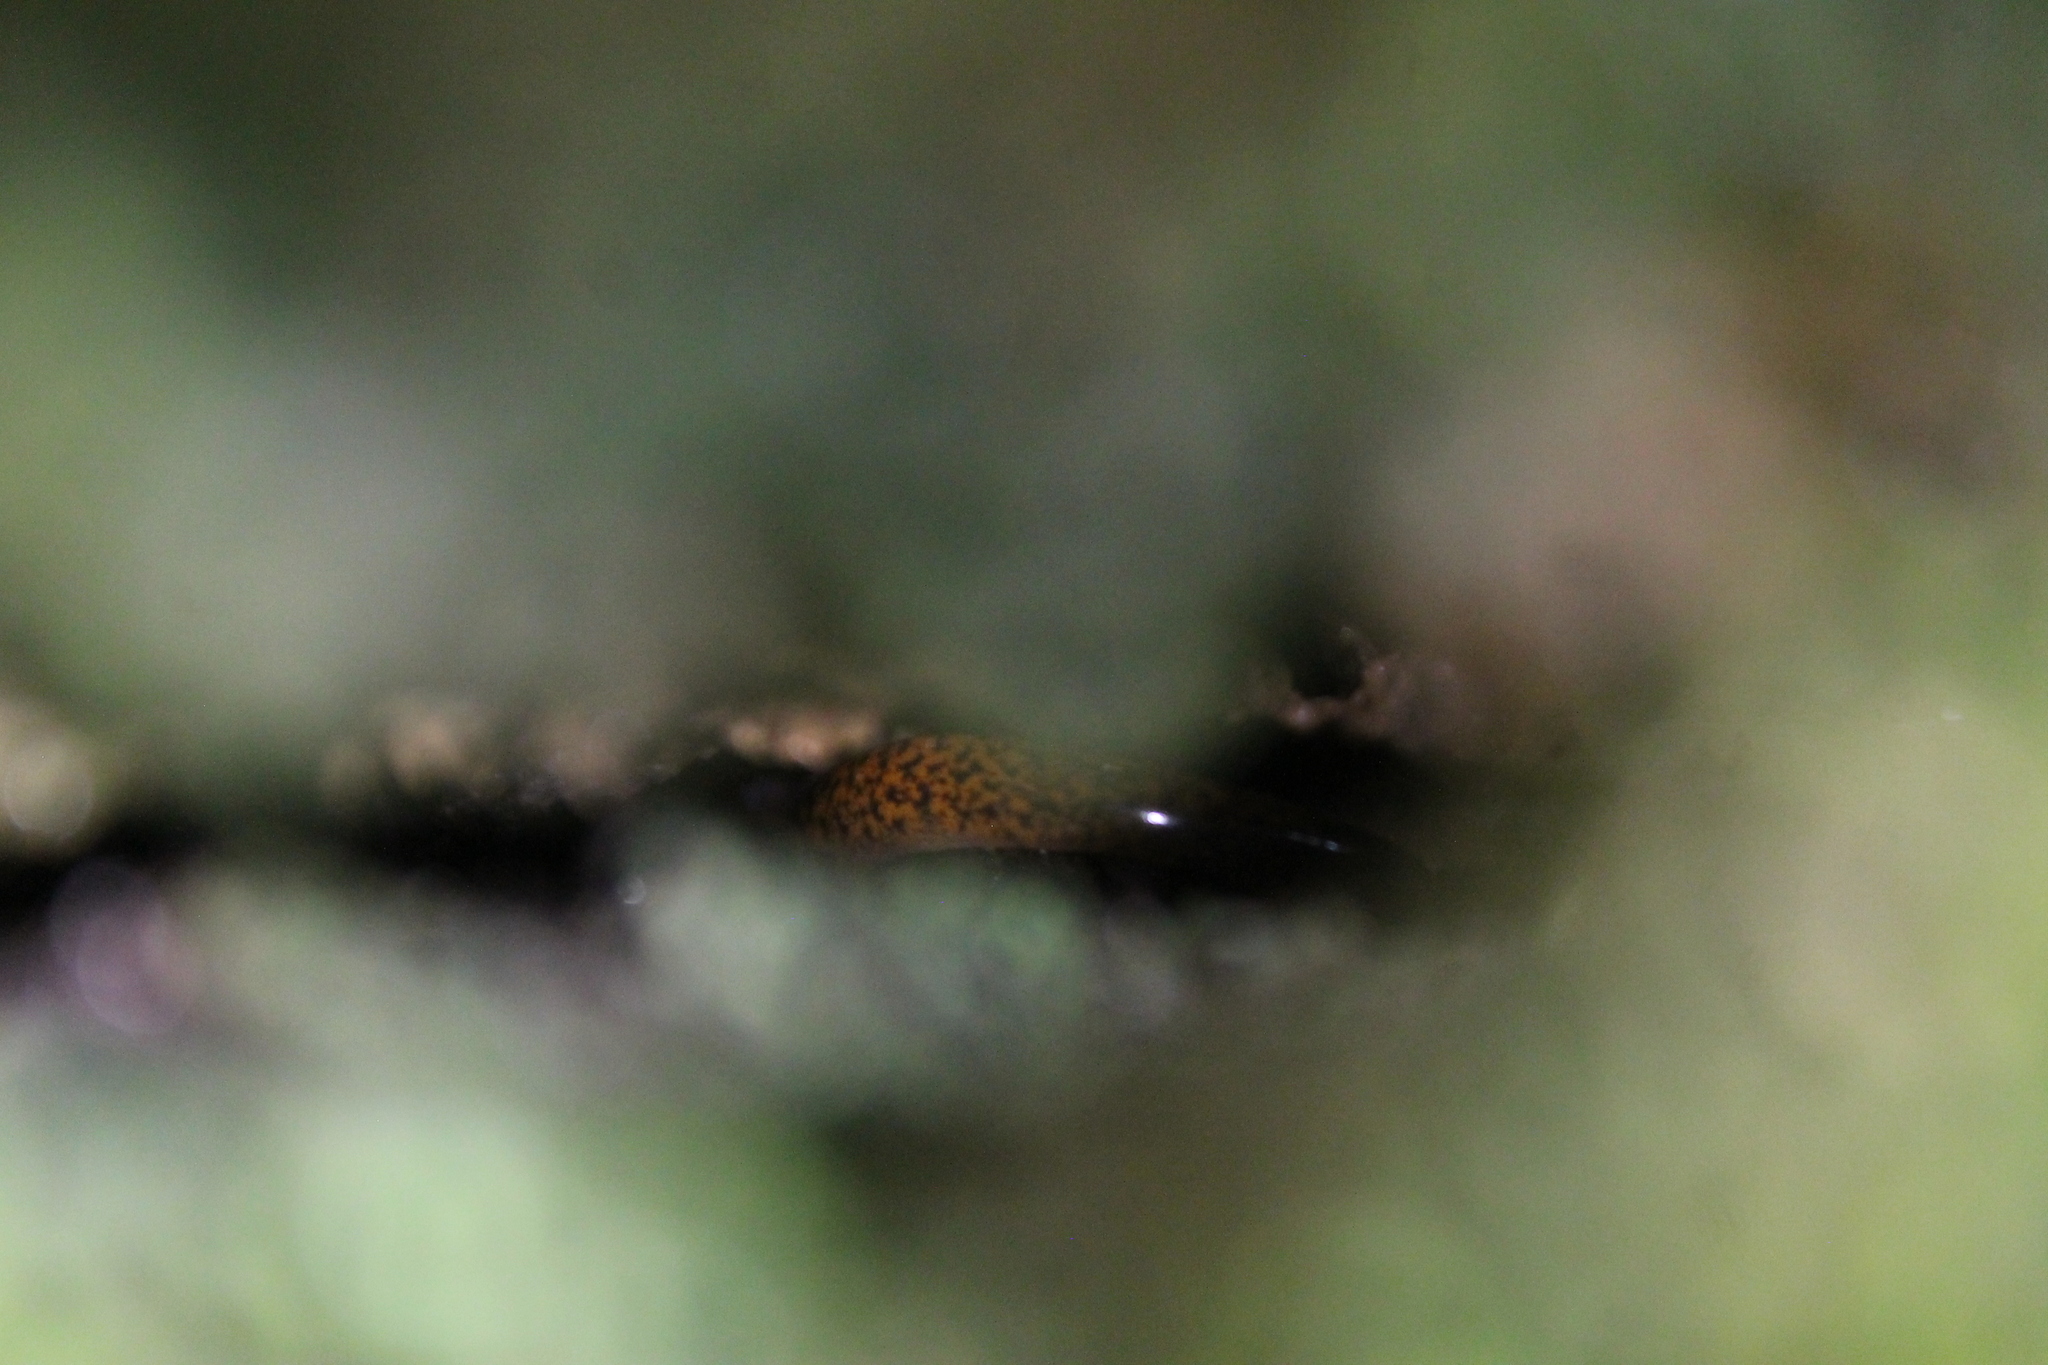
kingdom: Animalia
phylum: Chordata
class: Amphibia
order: Caudata
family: Plethodontidae
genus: Eurycea
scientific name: Eurycea lucifuga
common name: Cave salamander
